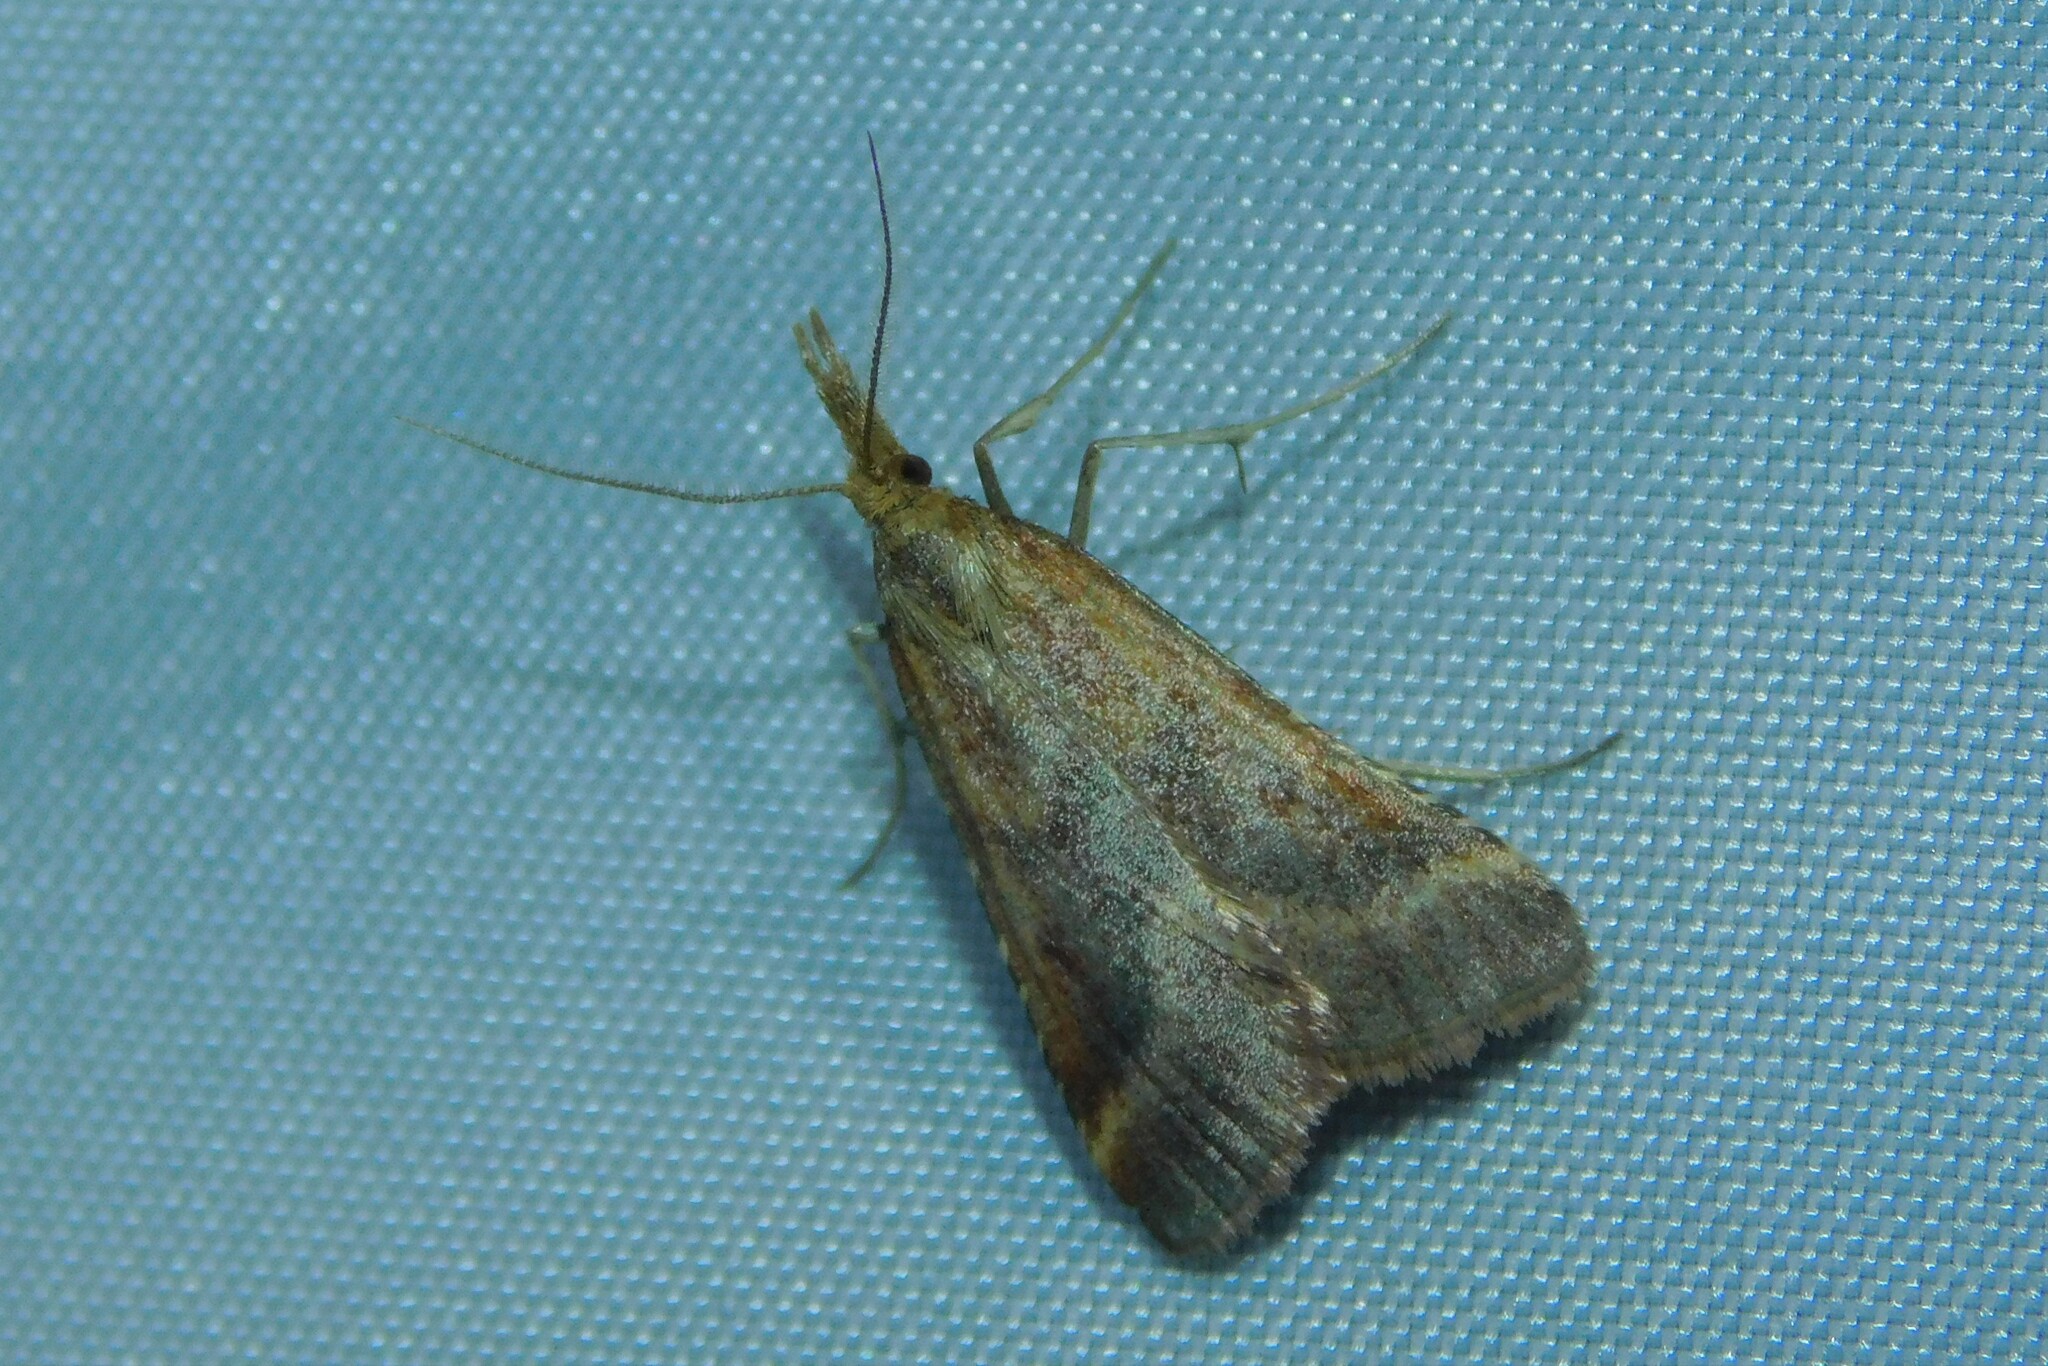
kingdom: Animalia
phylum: Arthropoda
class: Insecta
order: Lepidoptera
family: Pyralidae
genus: Synaphe
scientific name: Synaphe punctalis
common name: Long-legged tabby
